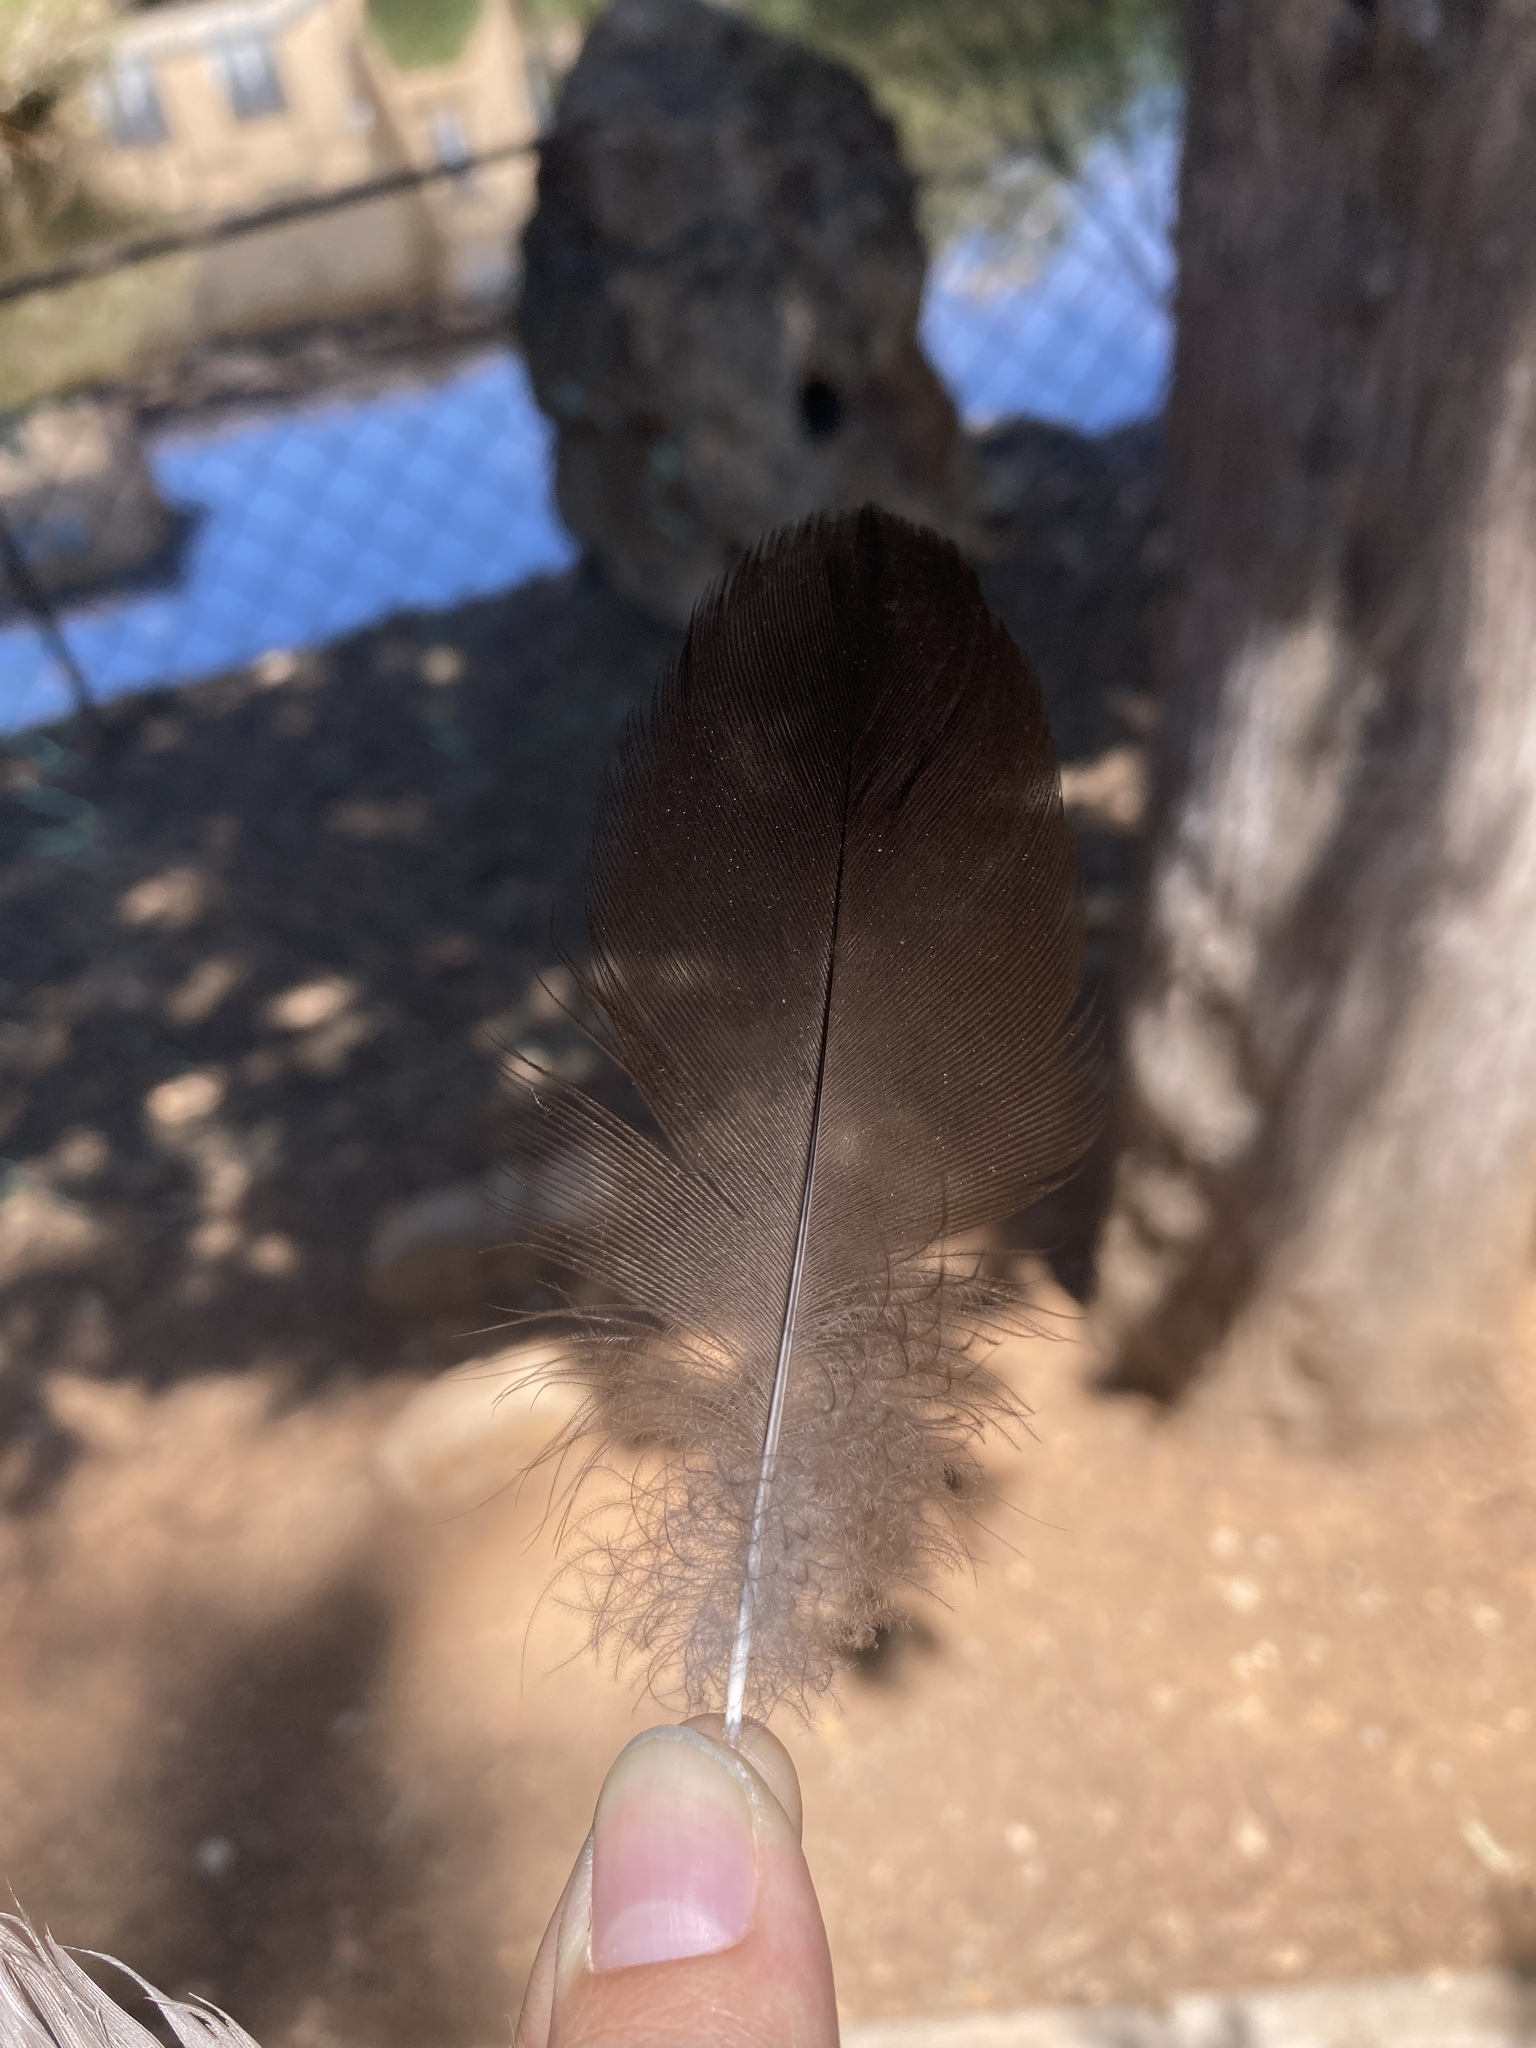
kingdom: Animalia
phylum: Chordata
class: Aves
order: Anseriformes
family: Anatidae
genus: Anas
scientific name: Anas platyrhynchos
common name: Mallard
